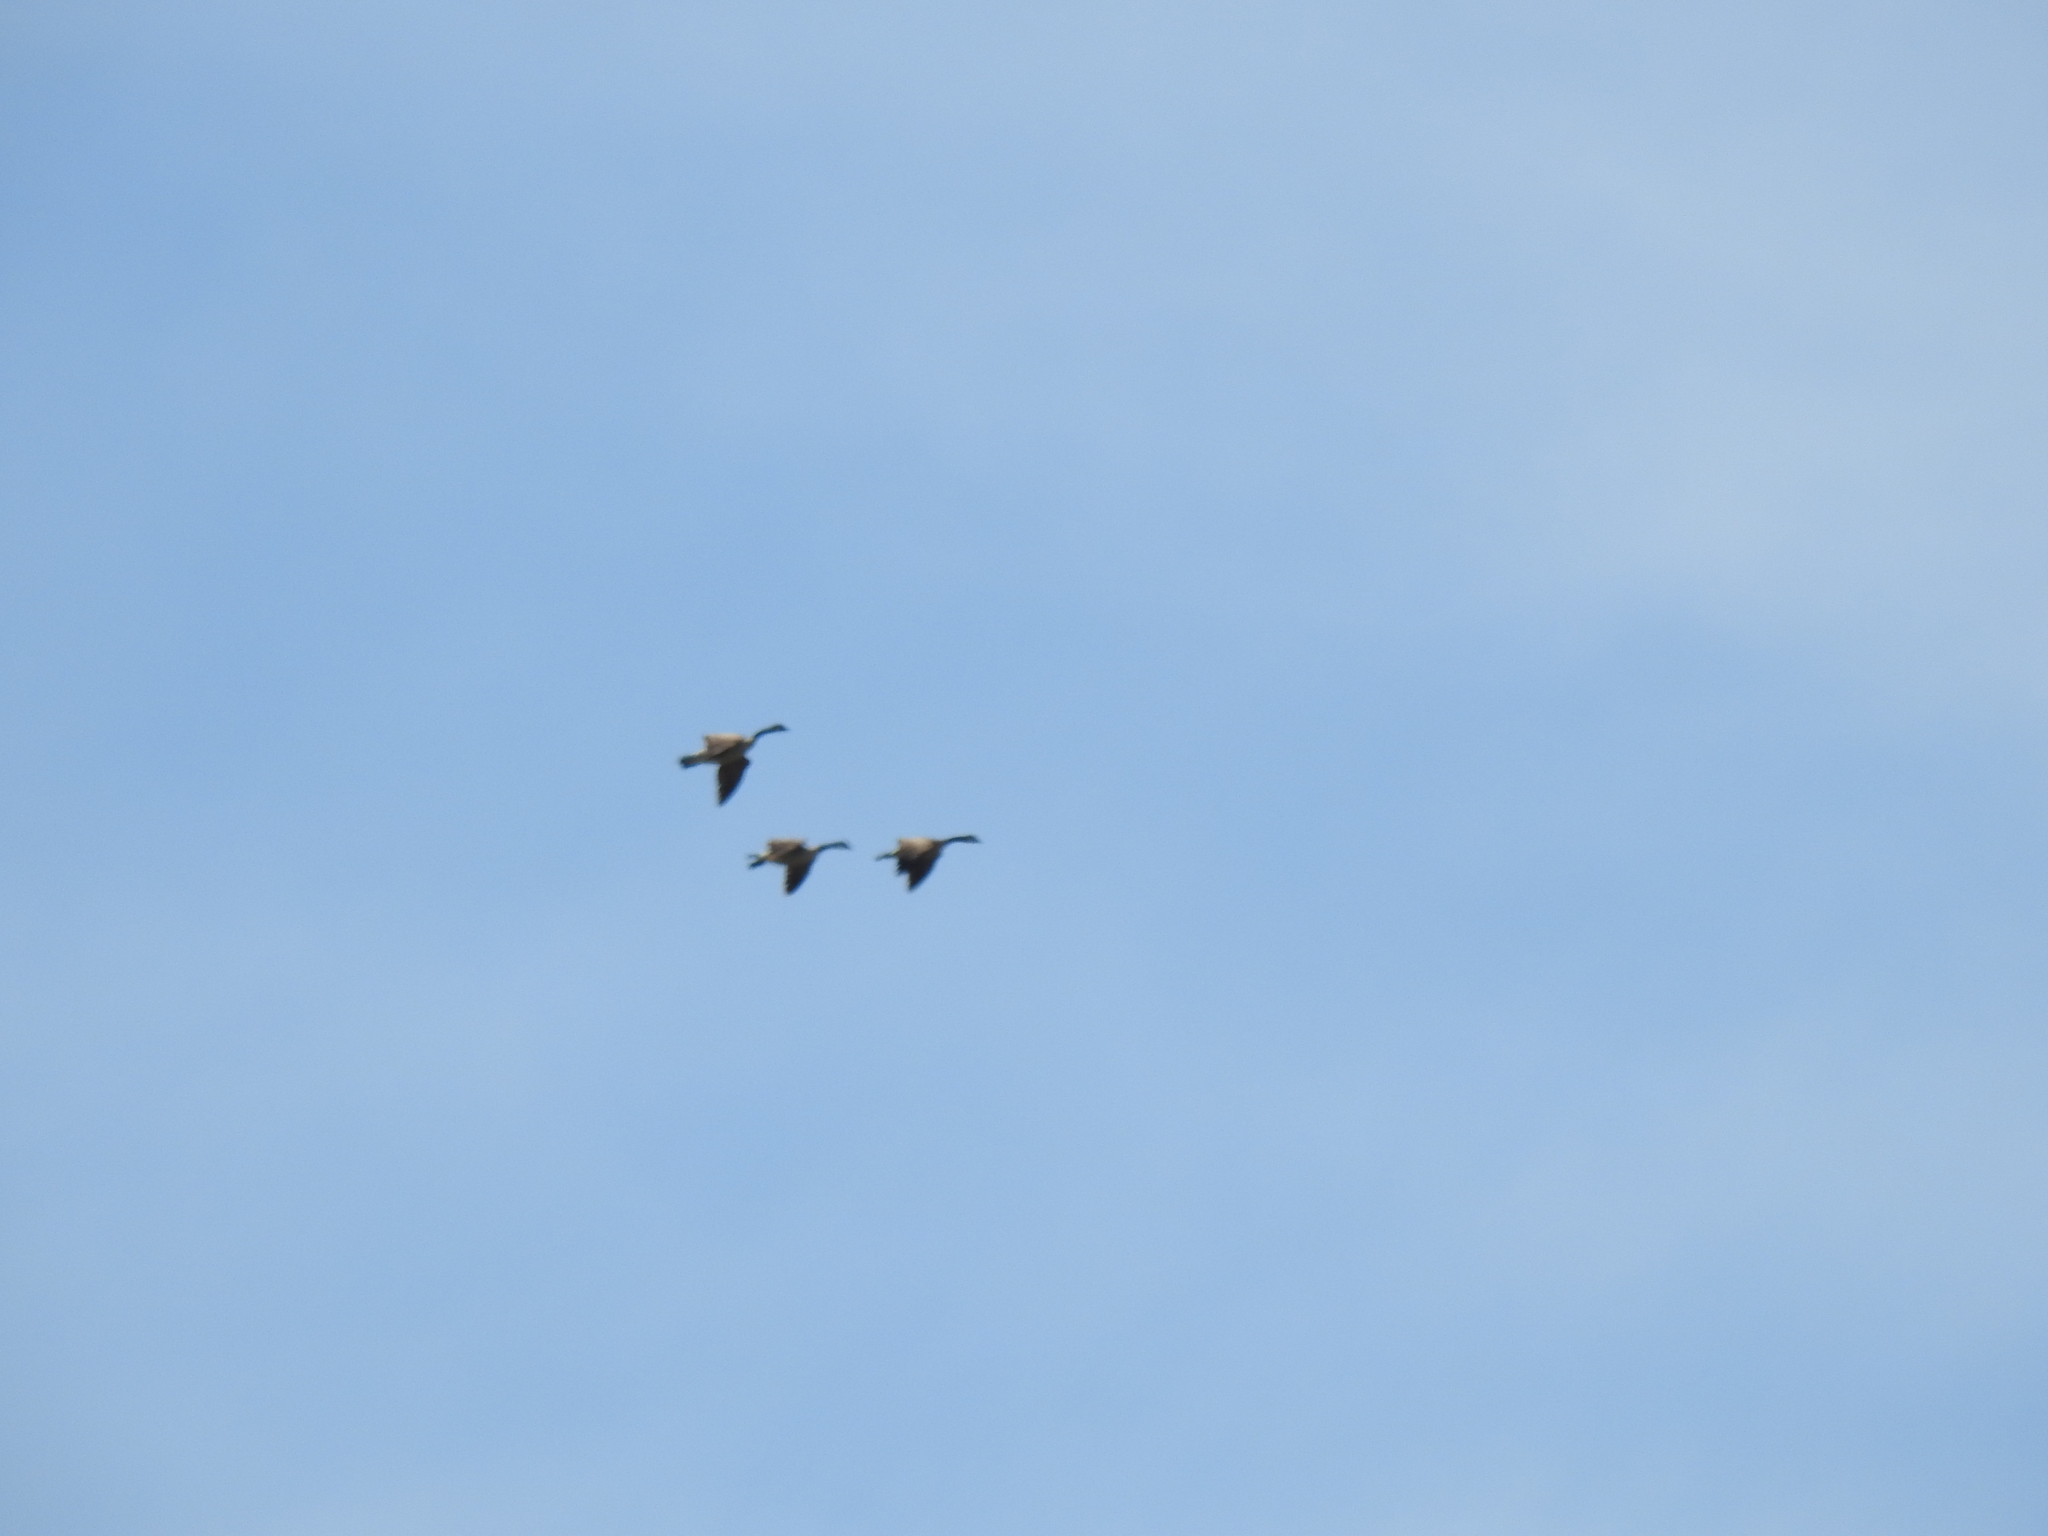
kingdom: Animalia
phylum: Chordata
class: Aves
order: Anseriformes
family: Anatidae
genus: Branta
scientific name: Branta canadensis
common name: Canada goose
